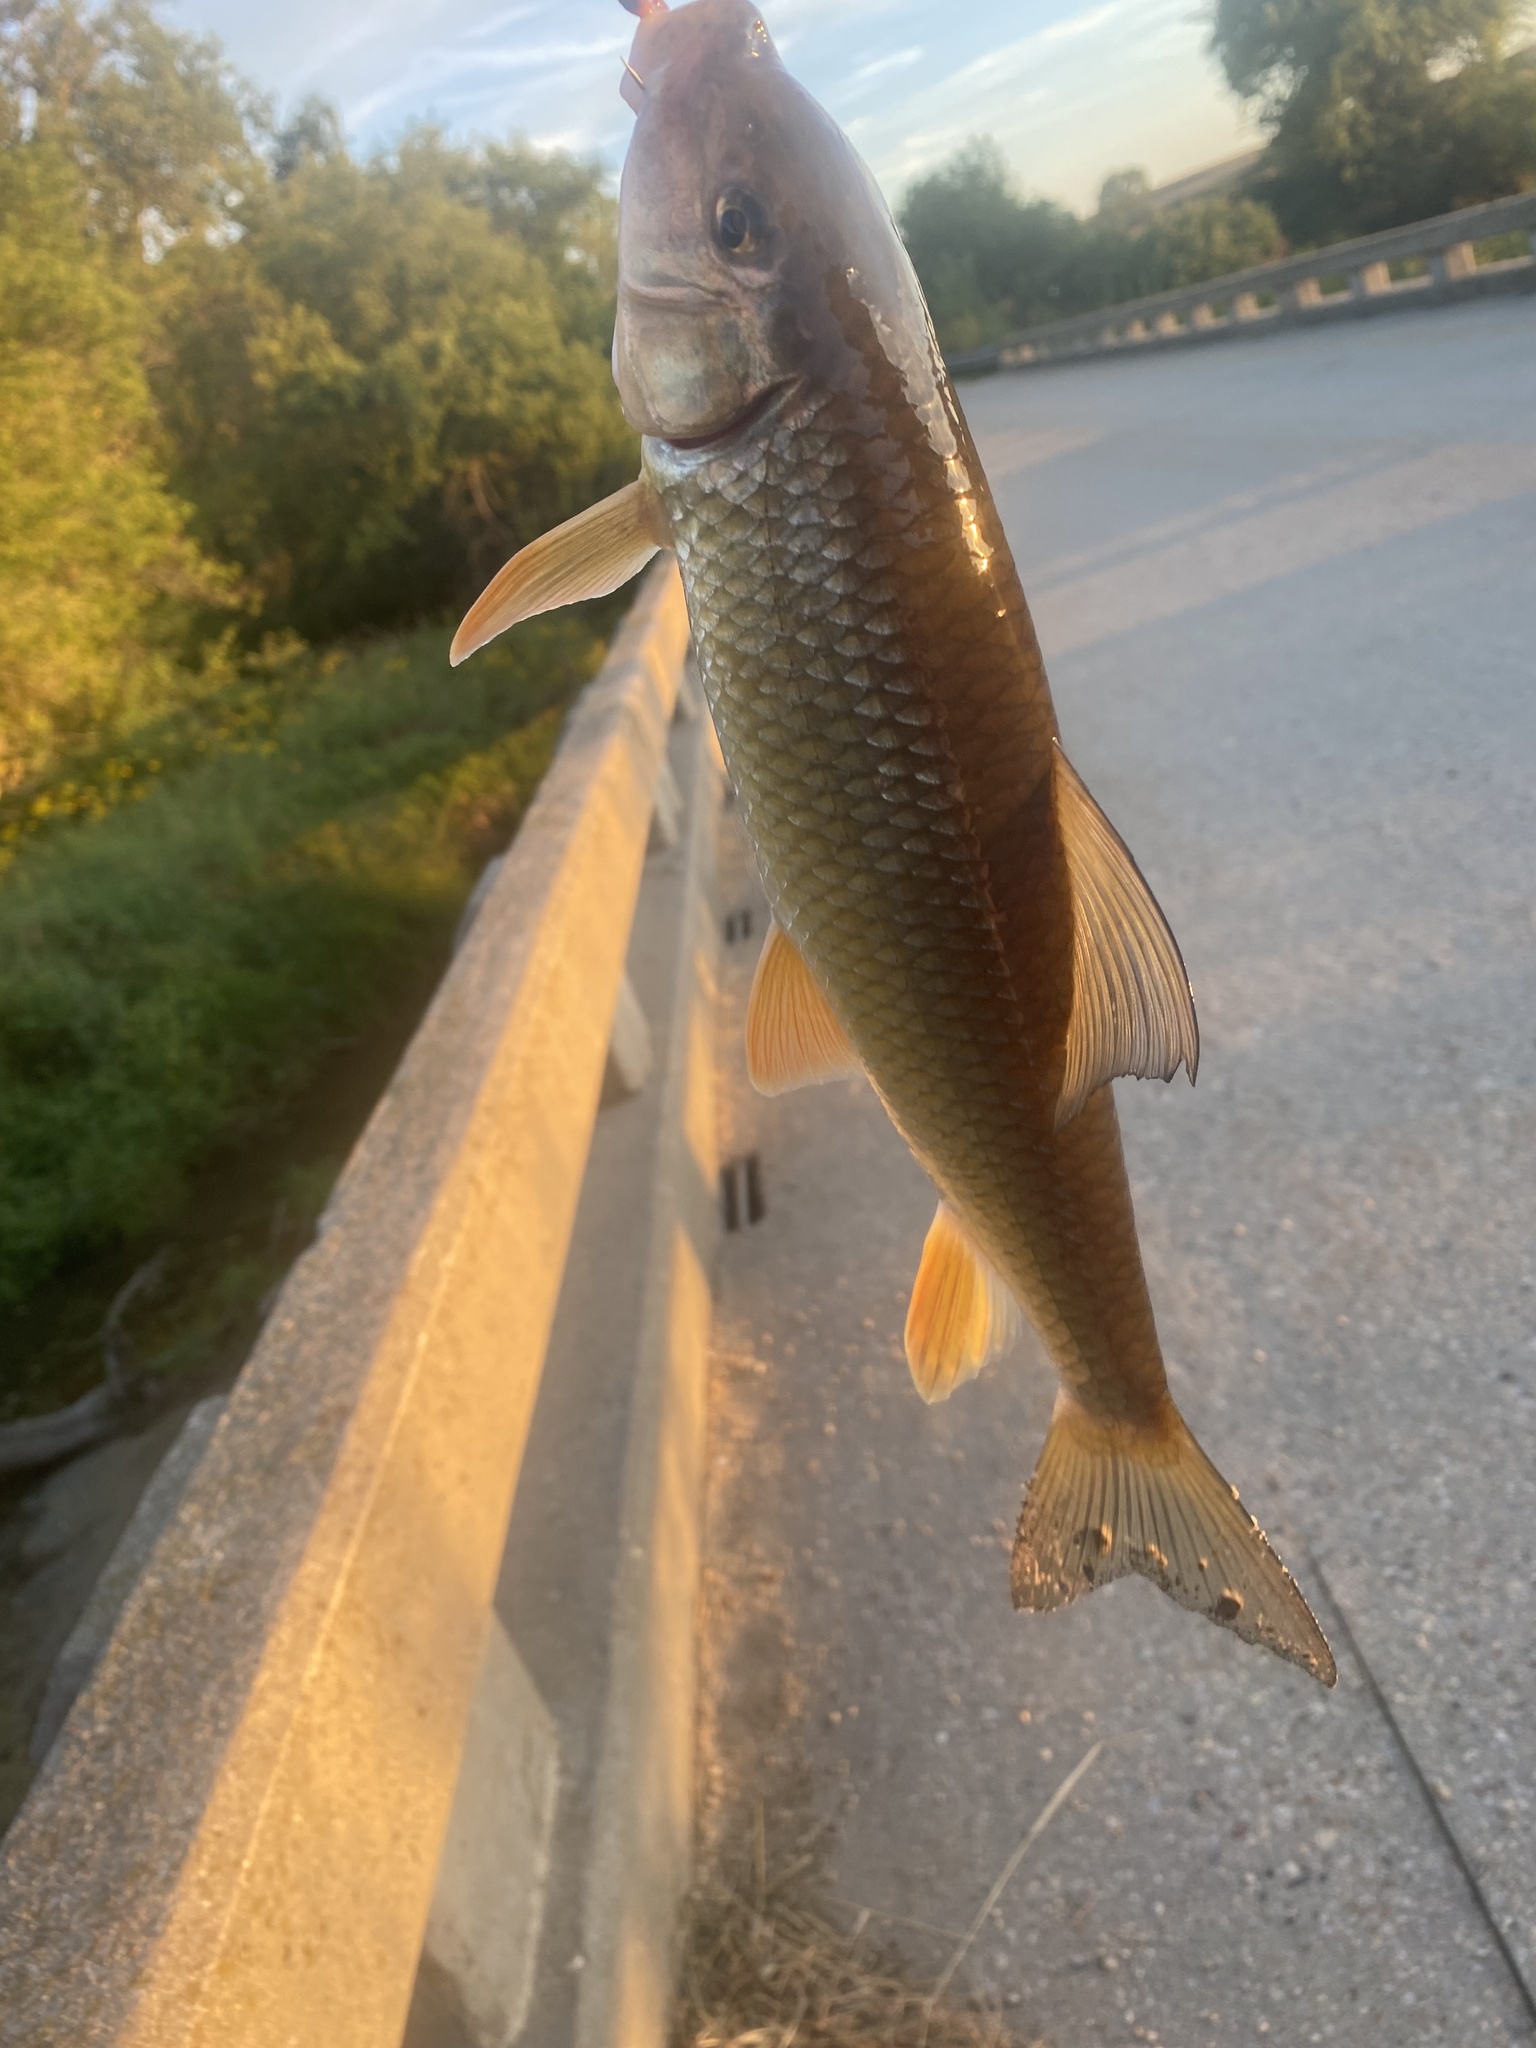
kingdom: Animalia
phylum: Chordata
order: Cypriniformes
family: Catostomidae
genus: Moxostoma
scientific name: Moxostoma erythrurum
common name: Golden redhorse
